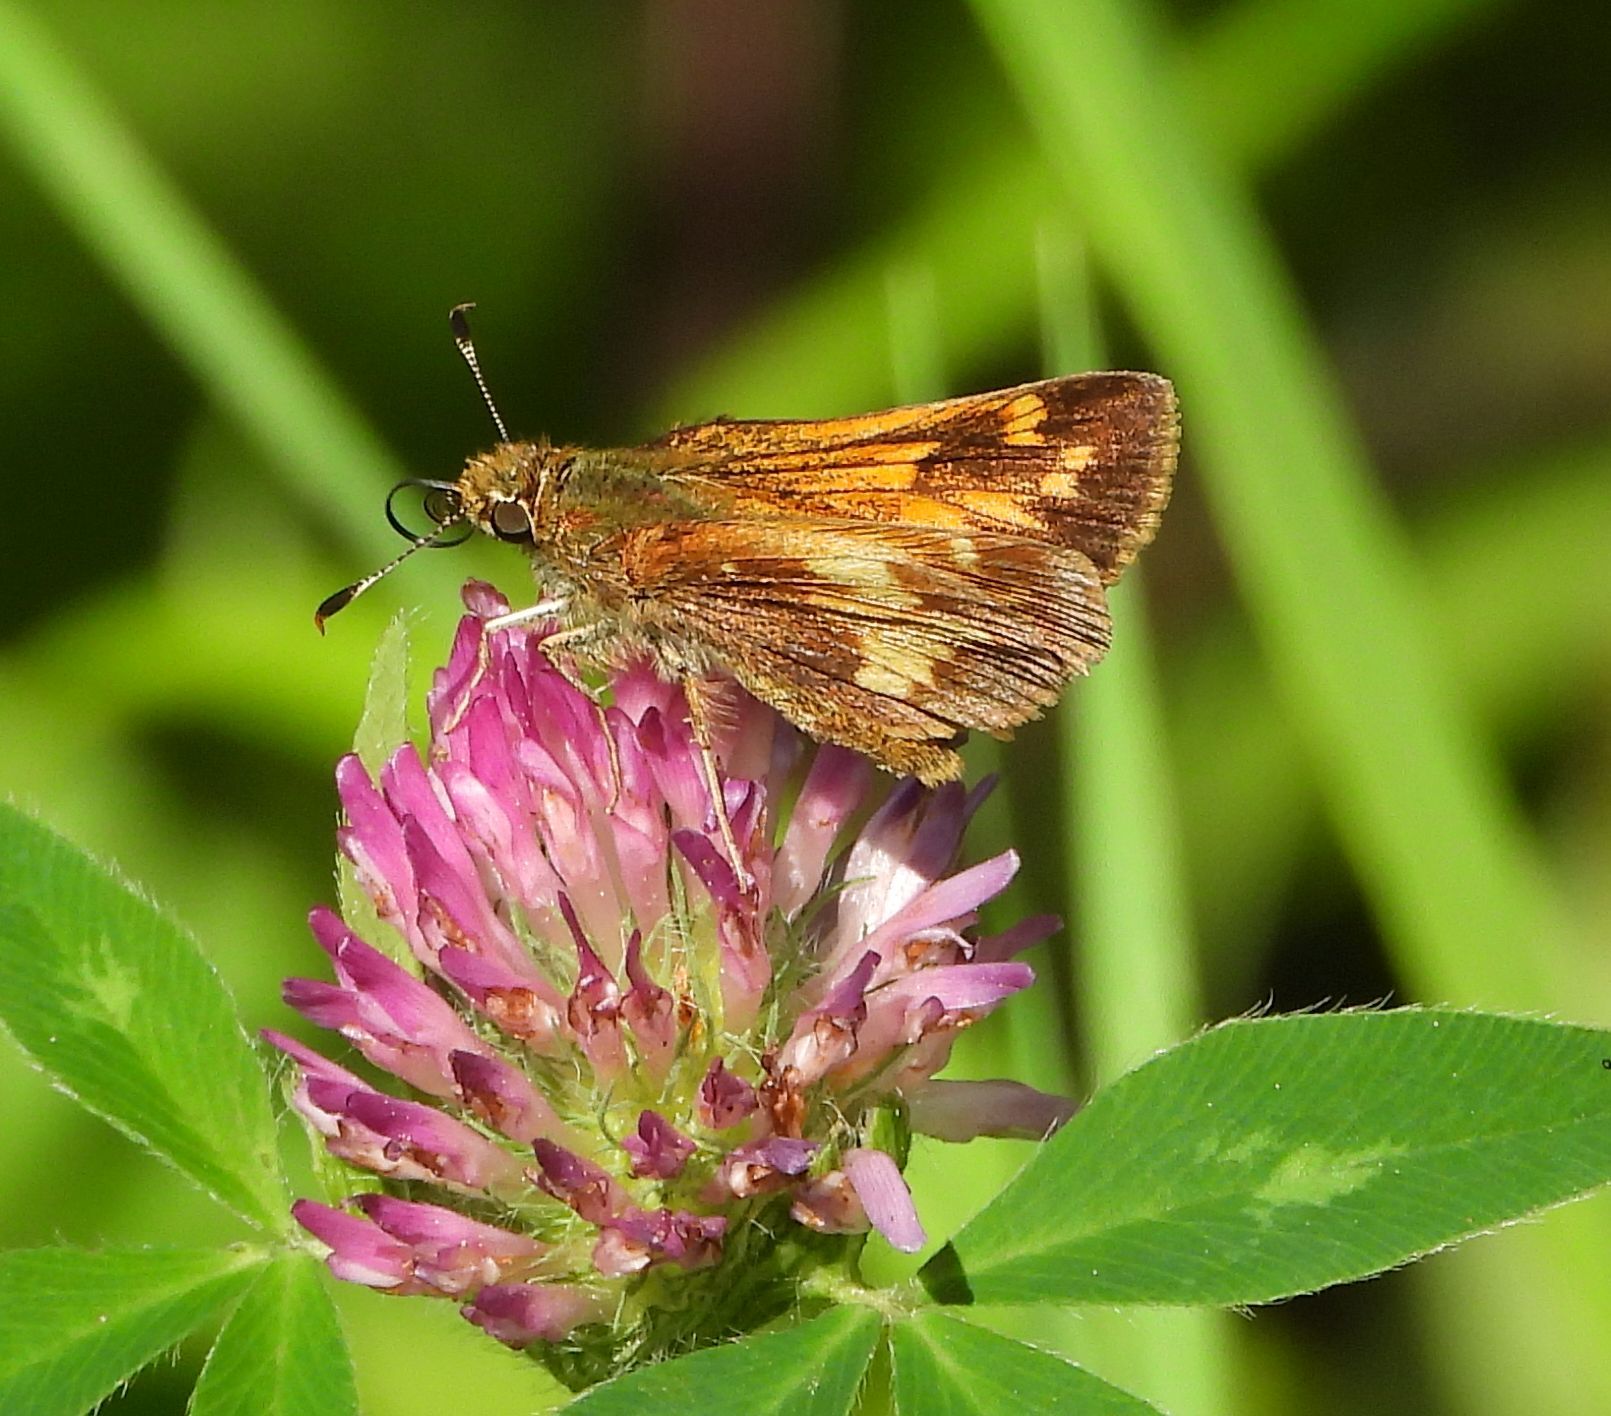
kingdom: Animalia
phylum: Arthropoda
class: Insecta
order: Lepidoptera
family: Hesperiidae
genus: Lon
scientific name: Lon hobomok
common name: Hobomok skipper
